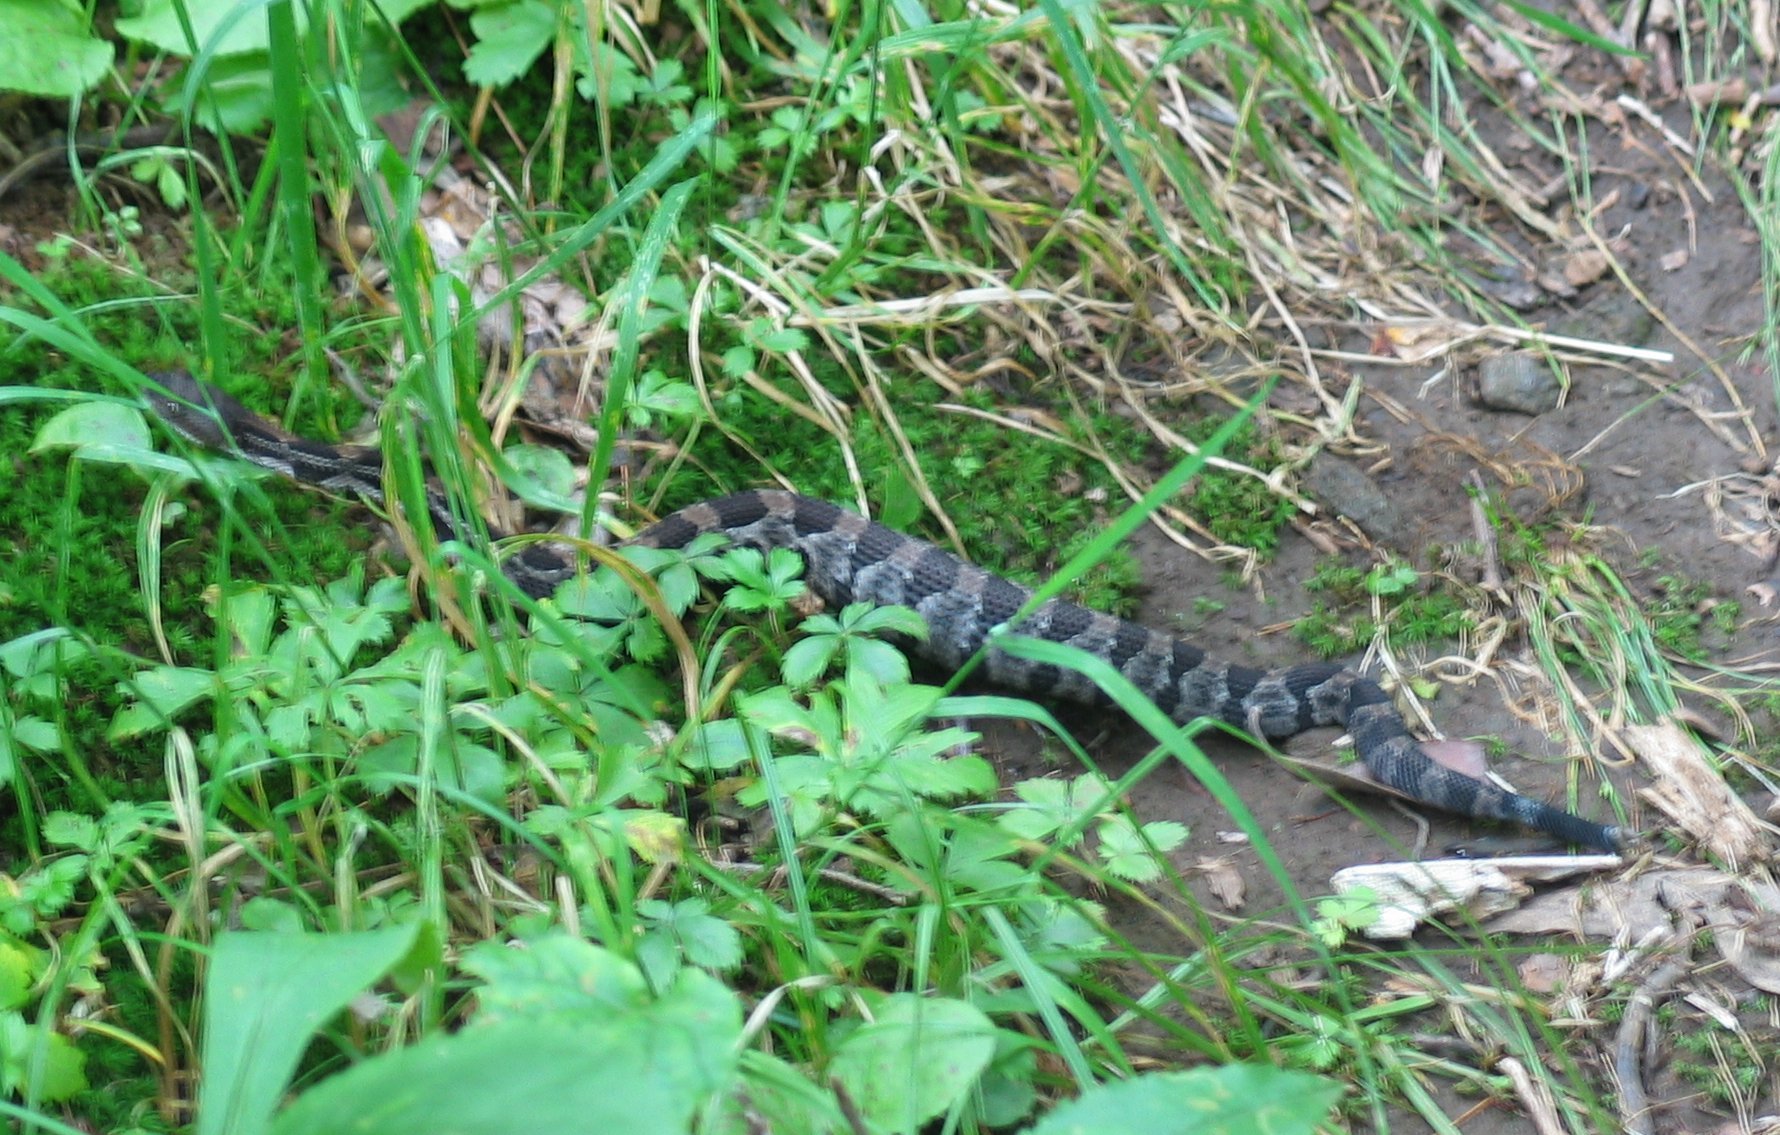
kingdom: Animalia
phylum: Chordata
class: Squamata
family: Viperidae
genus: Crotalus
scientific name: Crotalus horridus
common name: Timber rattlesnake
